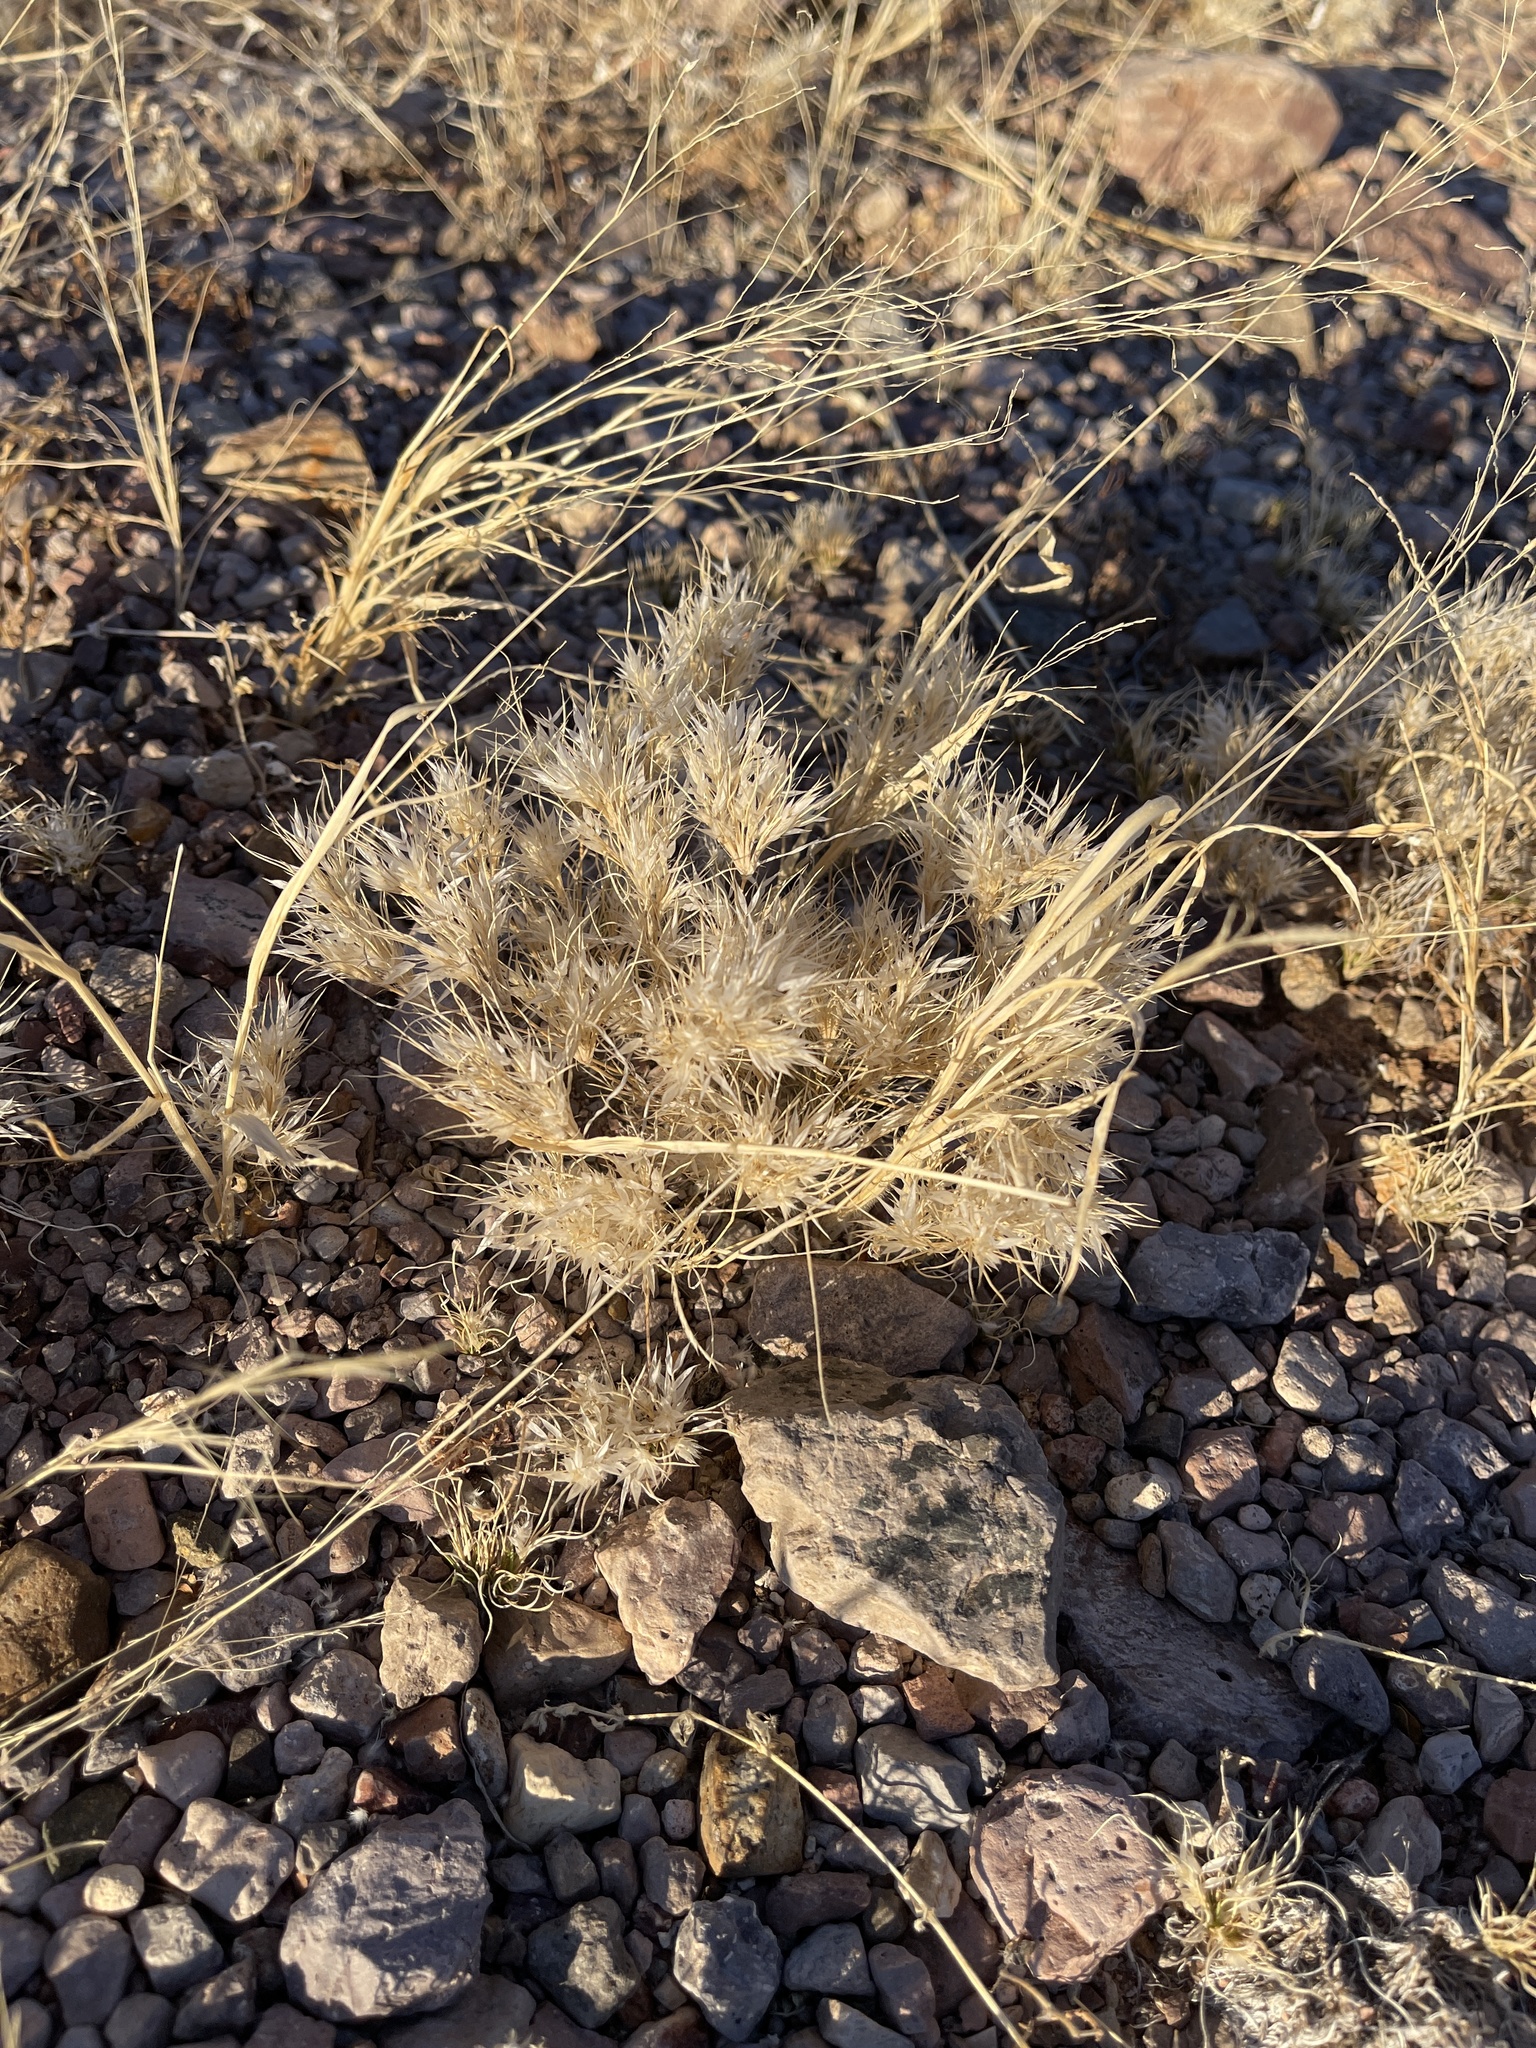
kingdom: Plantae
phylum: Tracheophyta
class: Liliopsida
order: Poales
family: Poaceae
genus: Dasyochloa
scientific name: Dasyochloa pulchella
